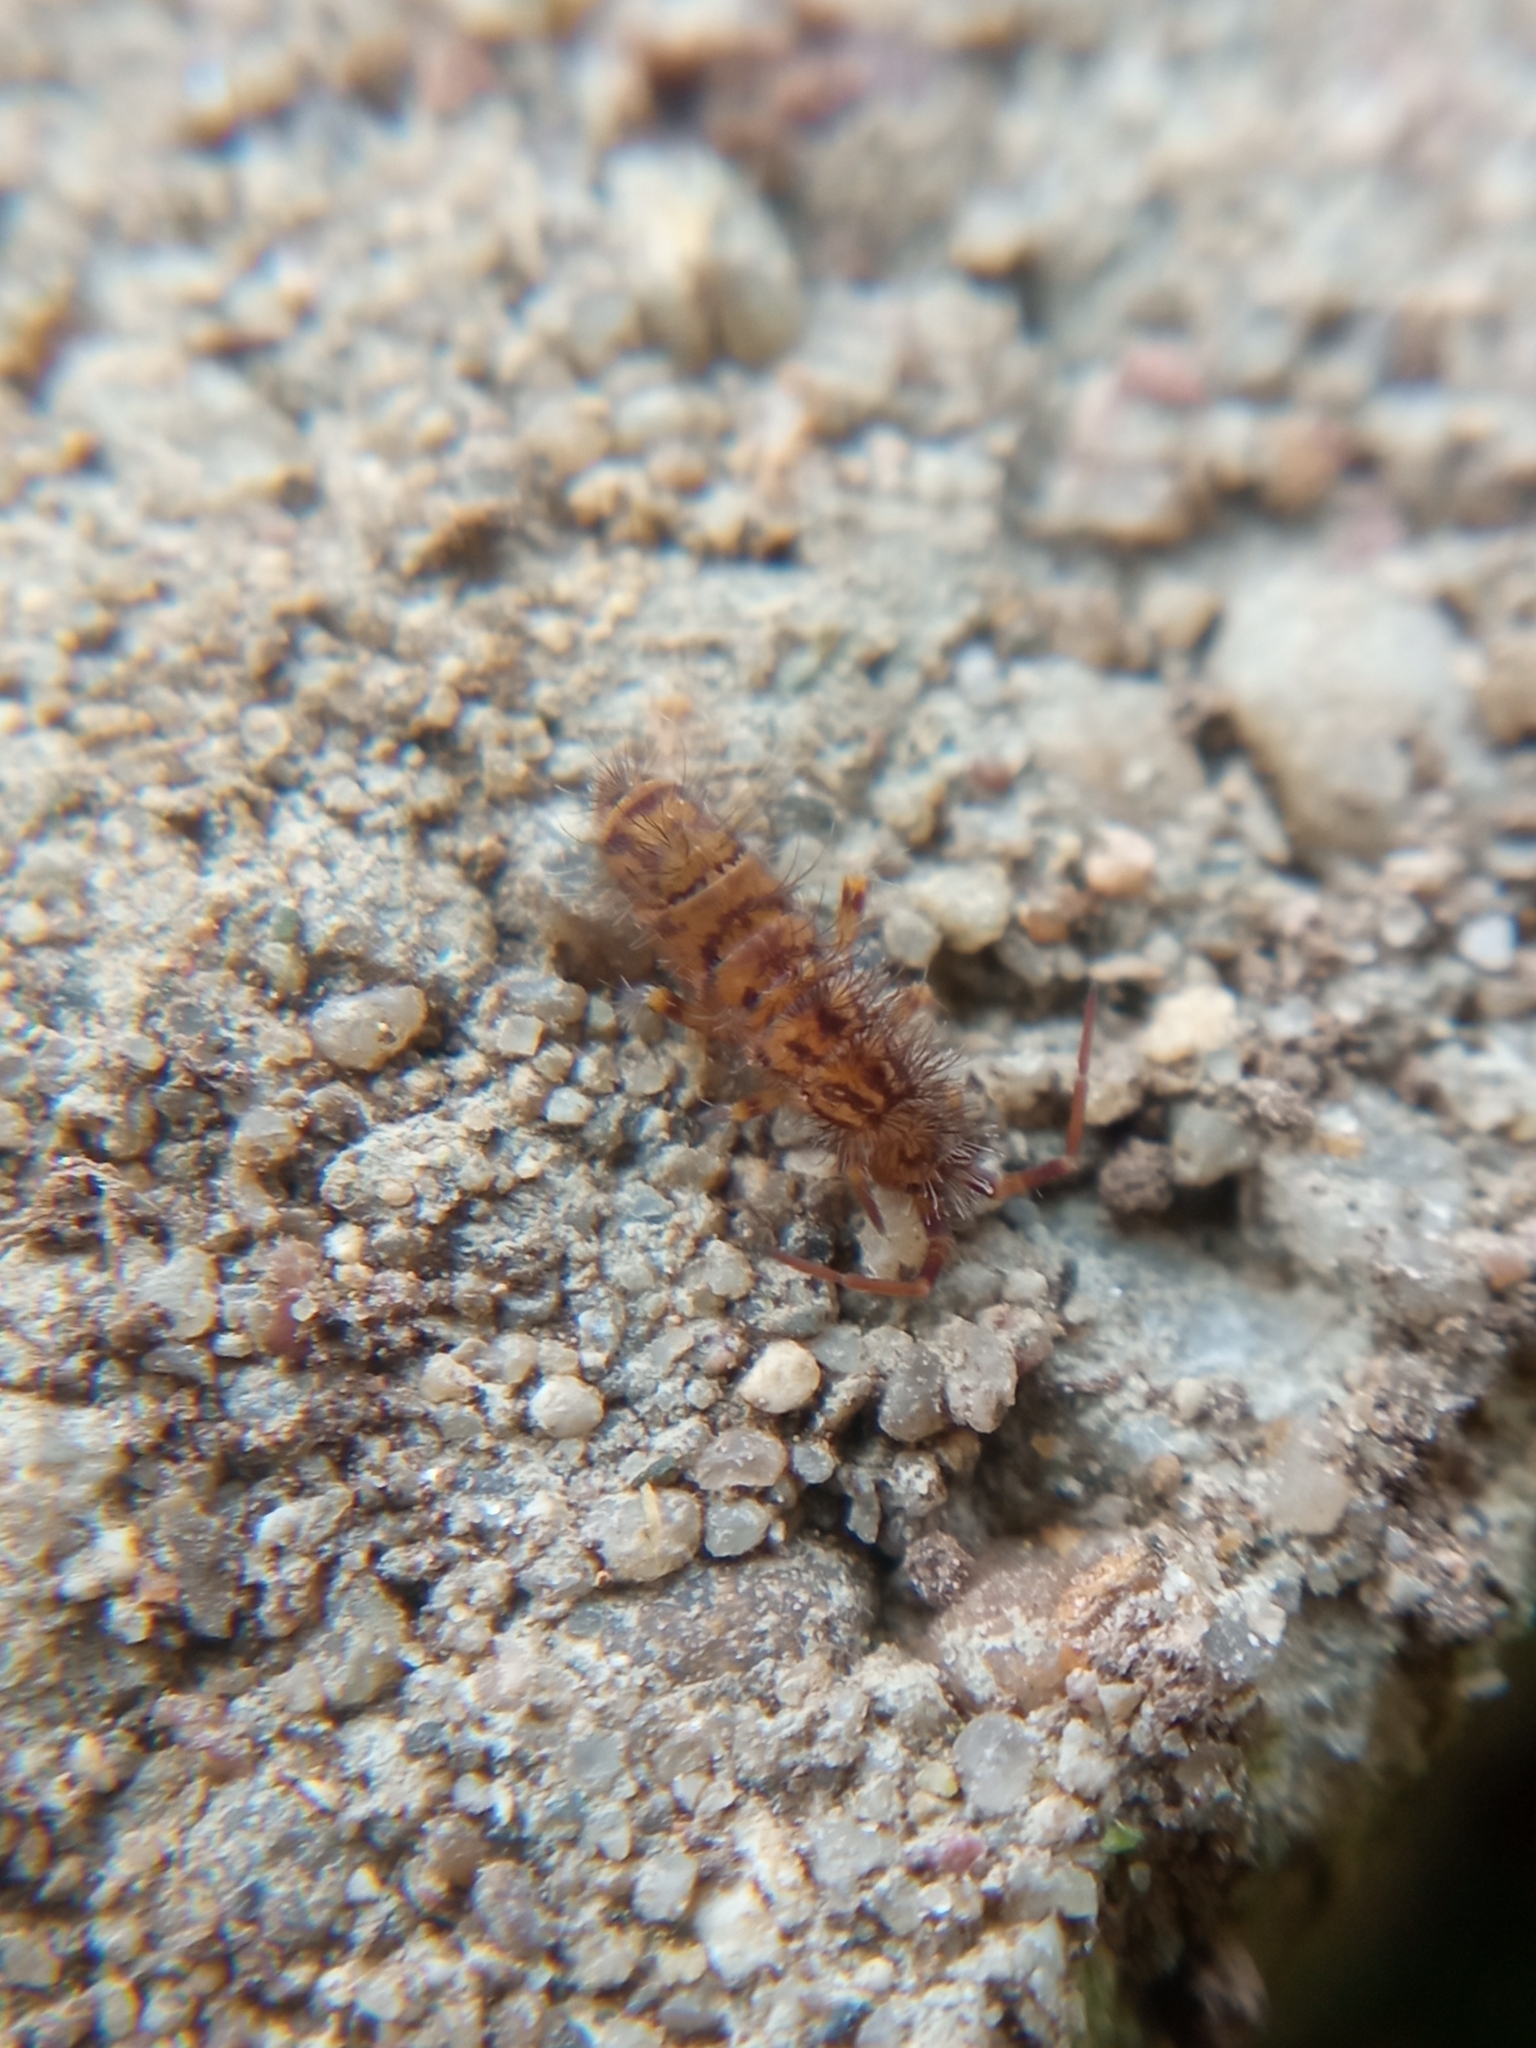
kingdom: Animalia
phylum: Arthropoda
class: Collembola
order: Entomobryomorpha
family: Orchesellidae
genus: Orchesella
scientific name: Orchesella villosa
